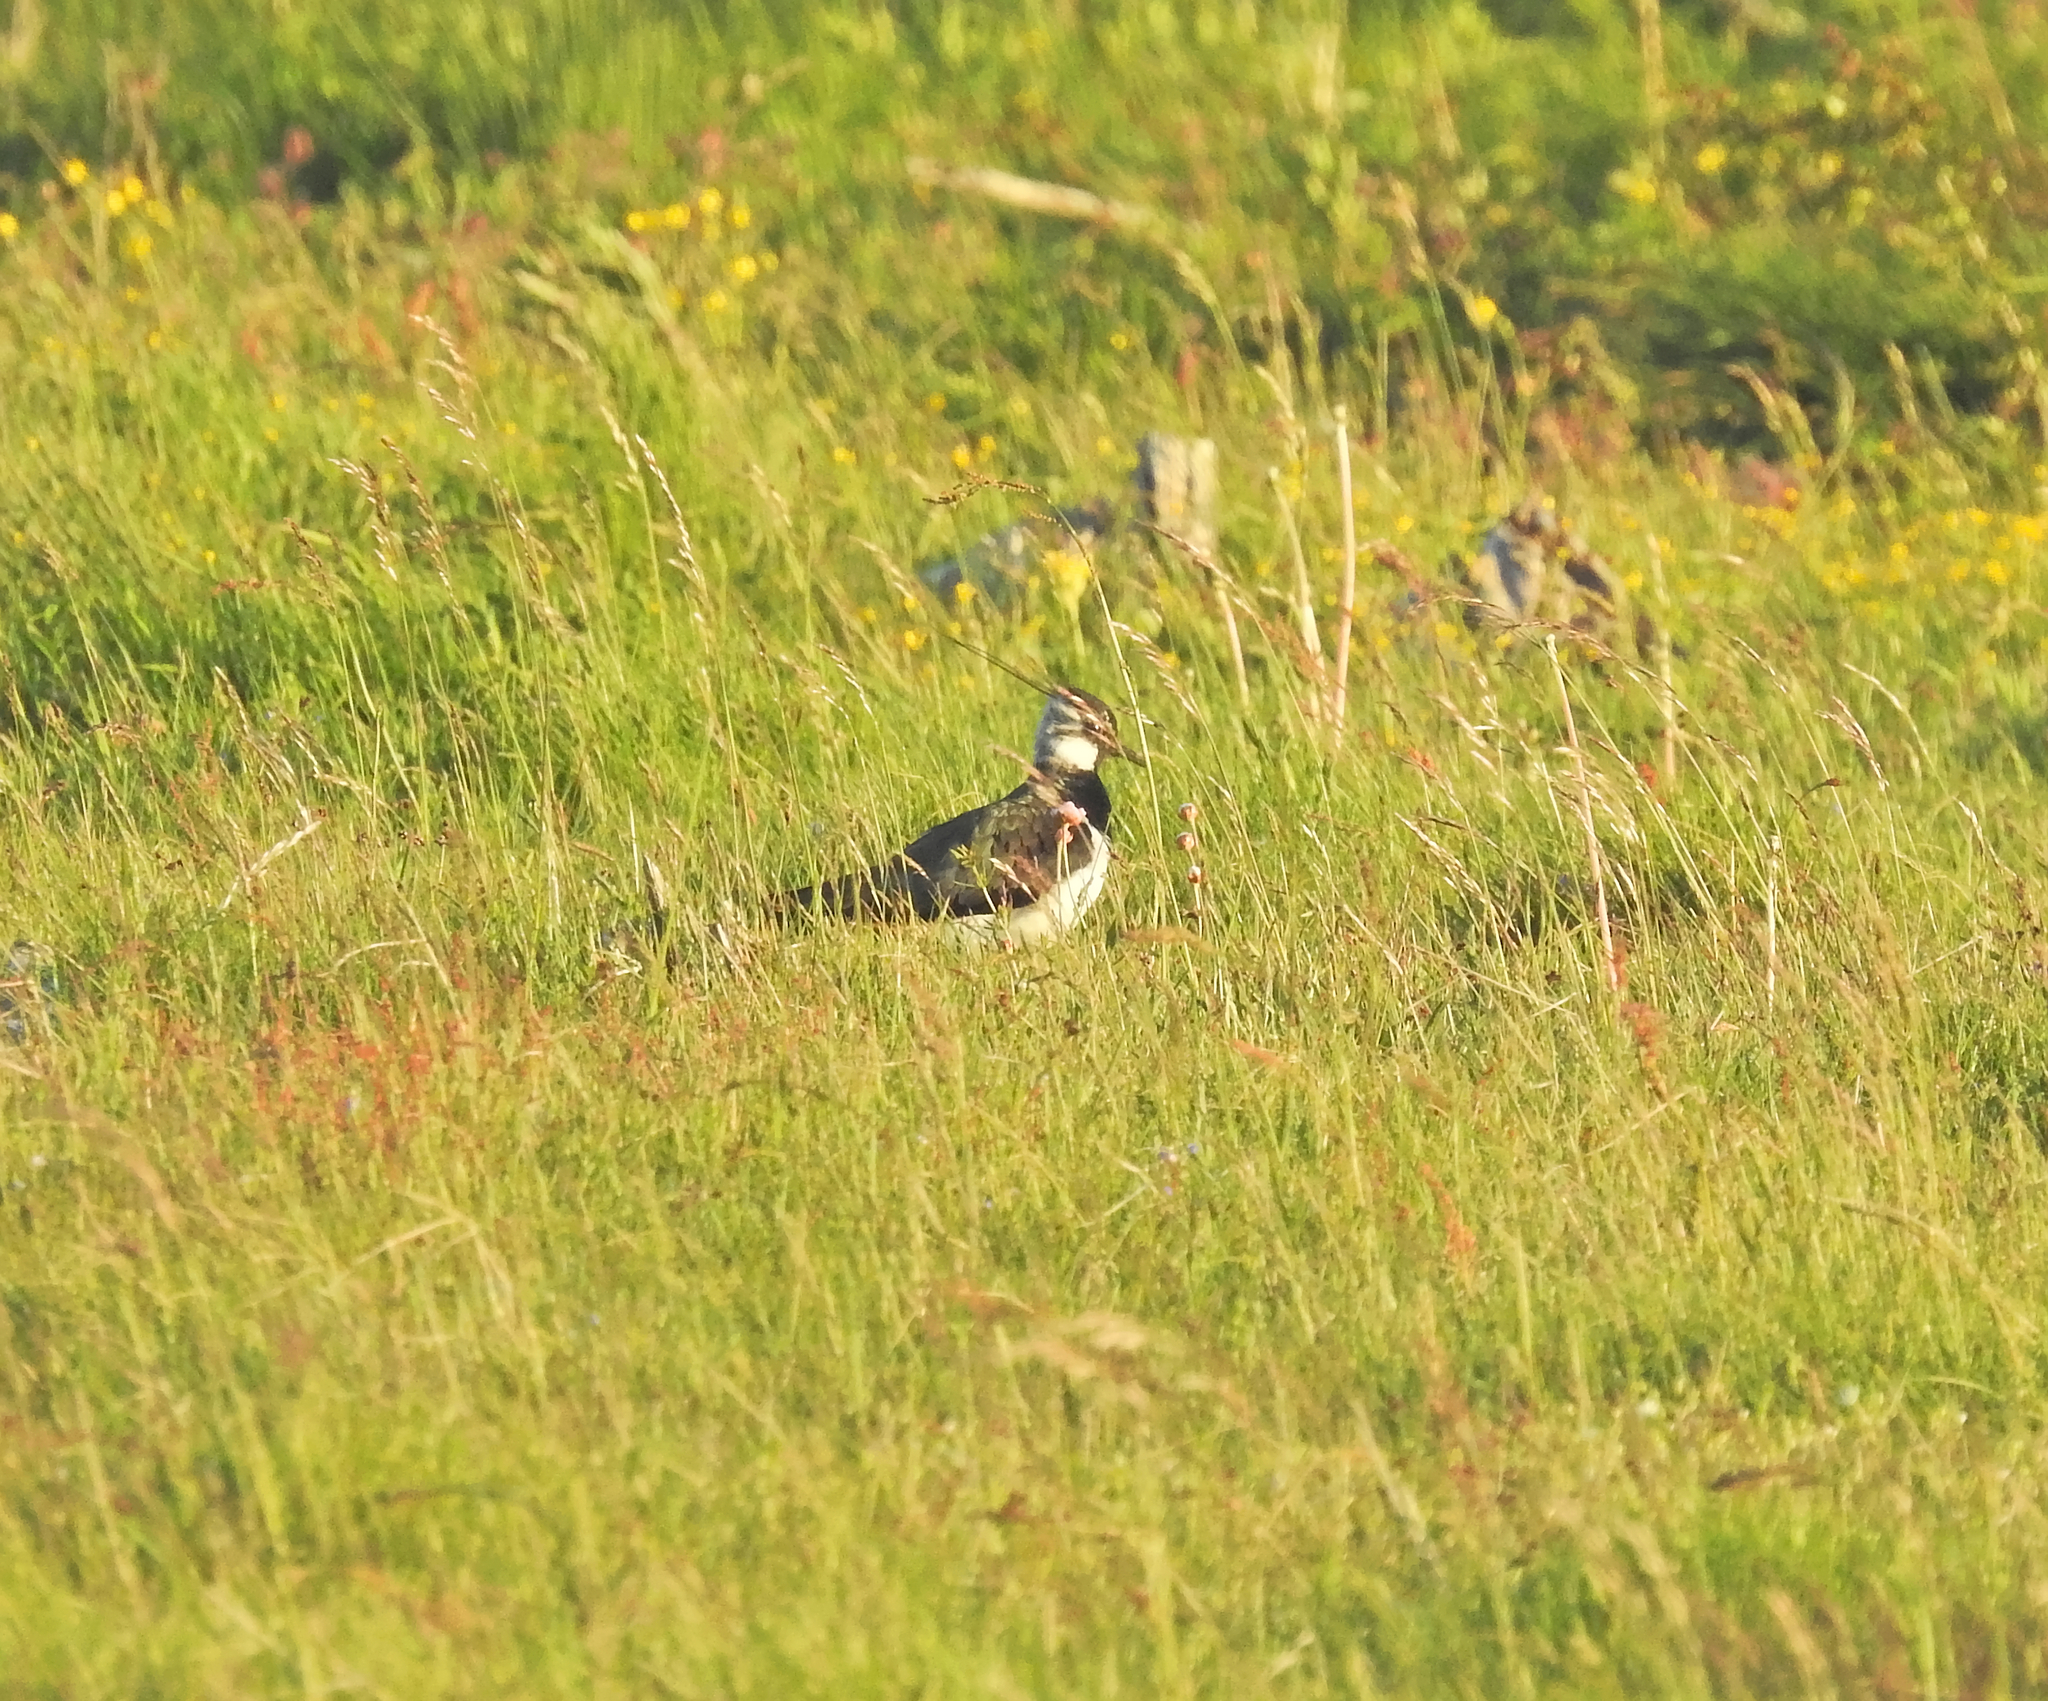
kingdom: Animalia
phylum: Chordata
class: Aves
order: Charadriiformes
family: Charadriidae
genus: Vanellus
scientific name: Vanellus vanellus
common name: Northern lapwing
